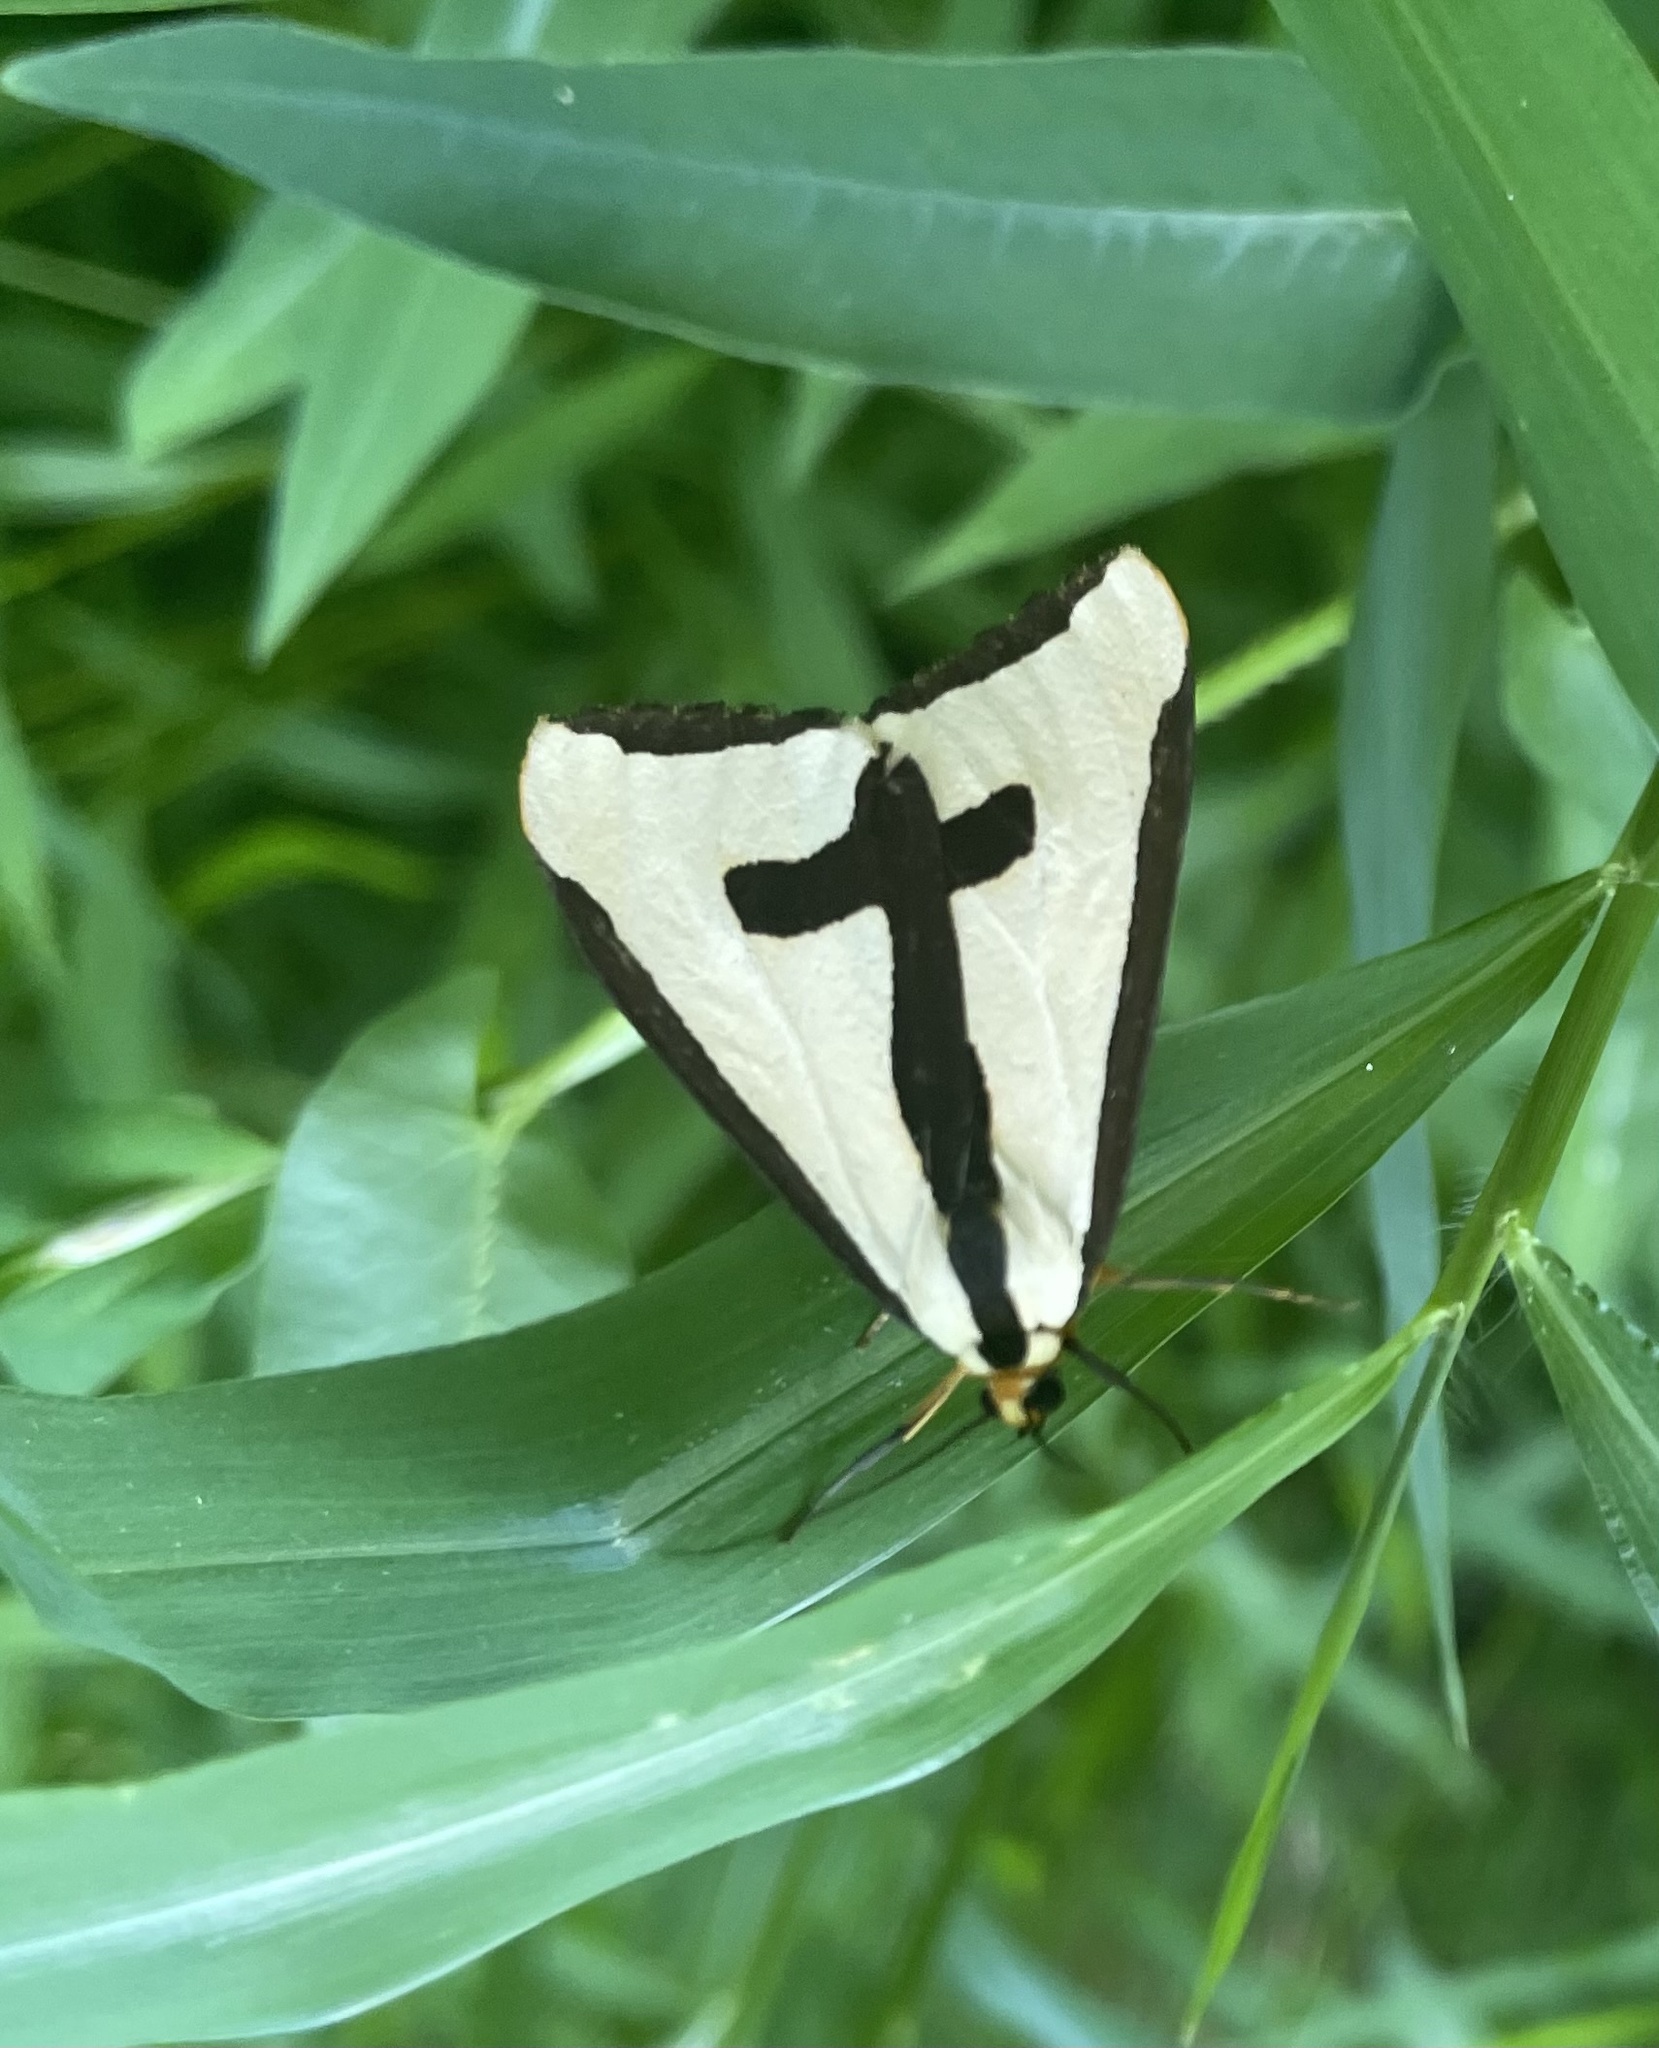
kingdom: Animalia
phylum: Arthropoda
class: Insecta
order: Lepidoptera
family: Erebidae
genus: Haploa
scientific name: Haploa clymene
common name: Clymene moth
